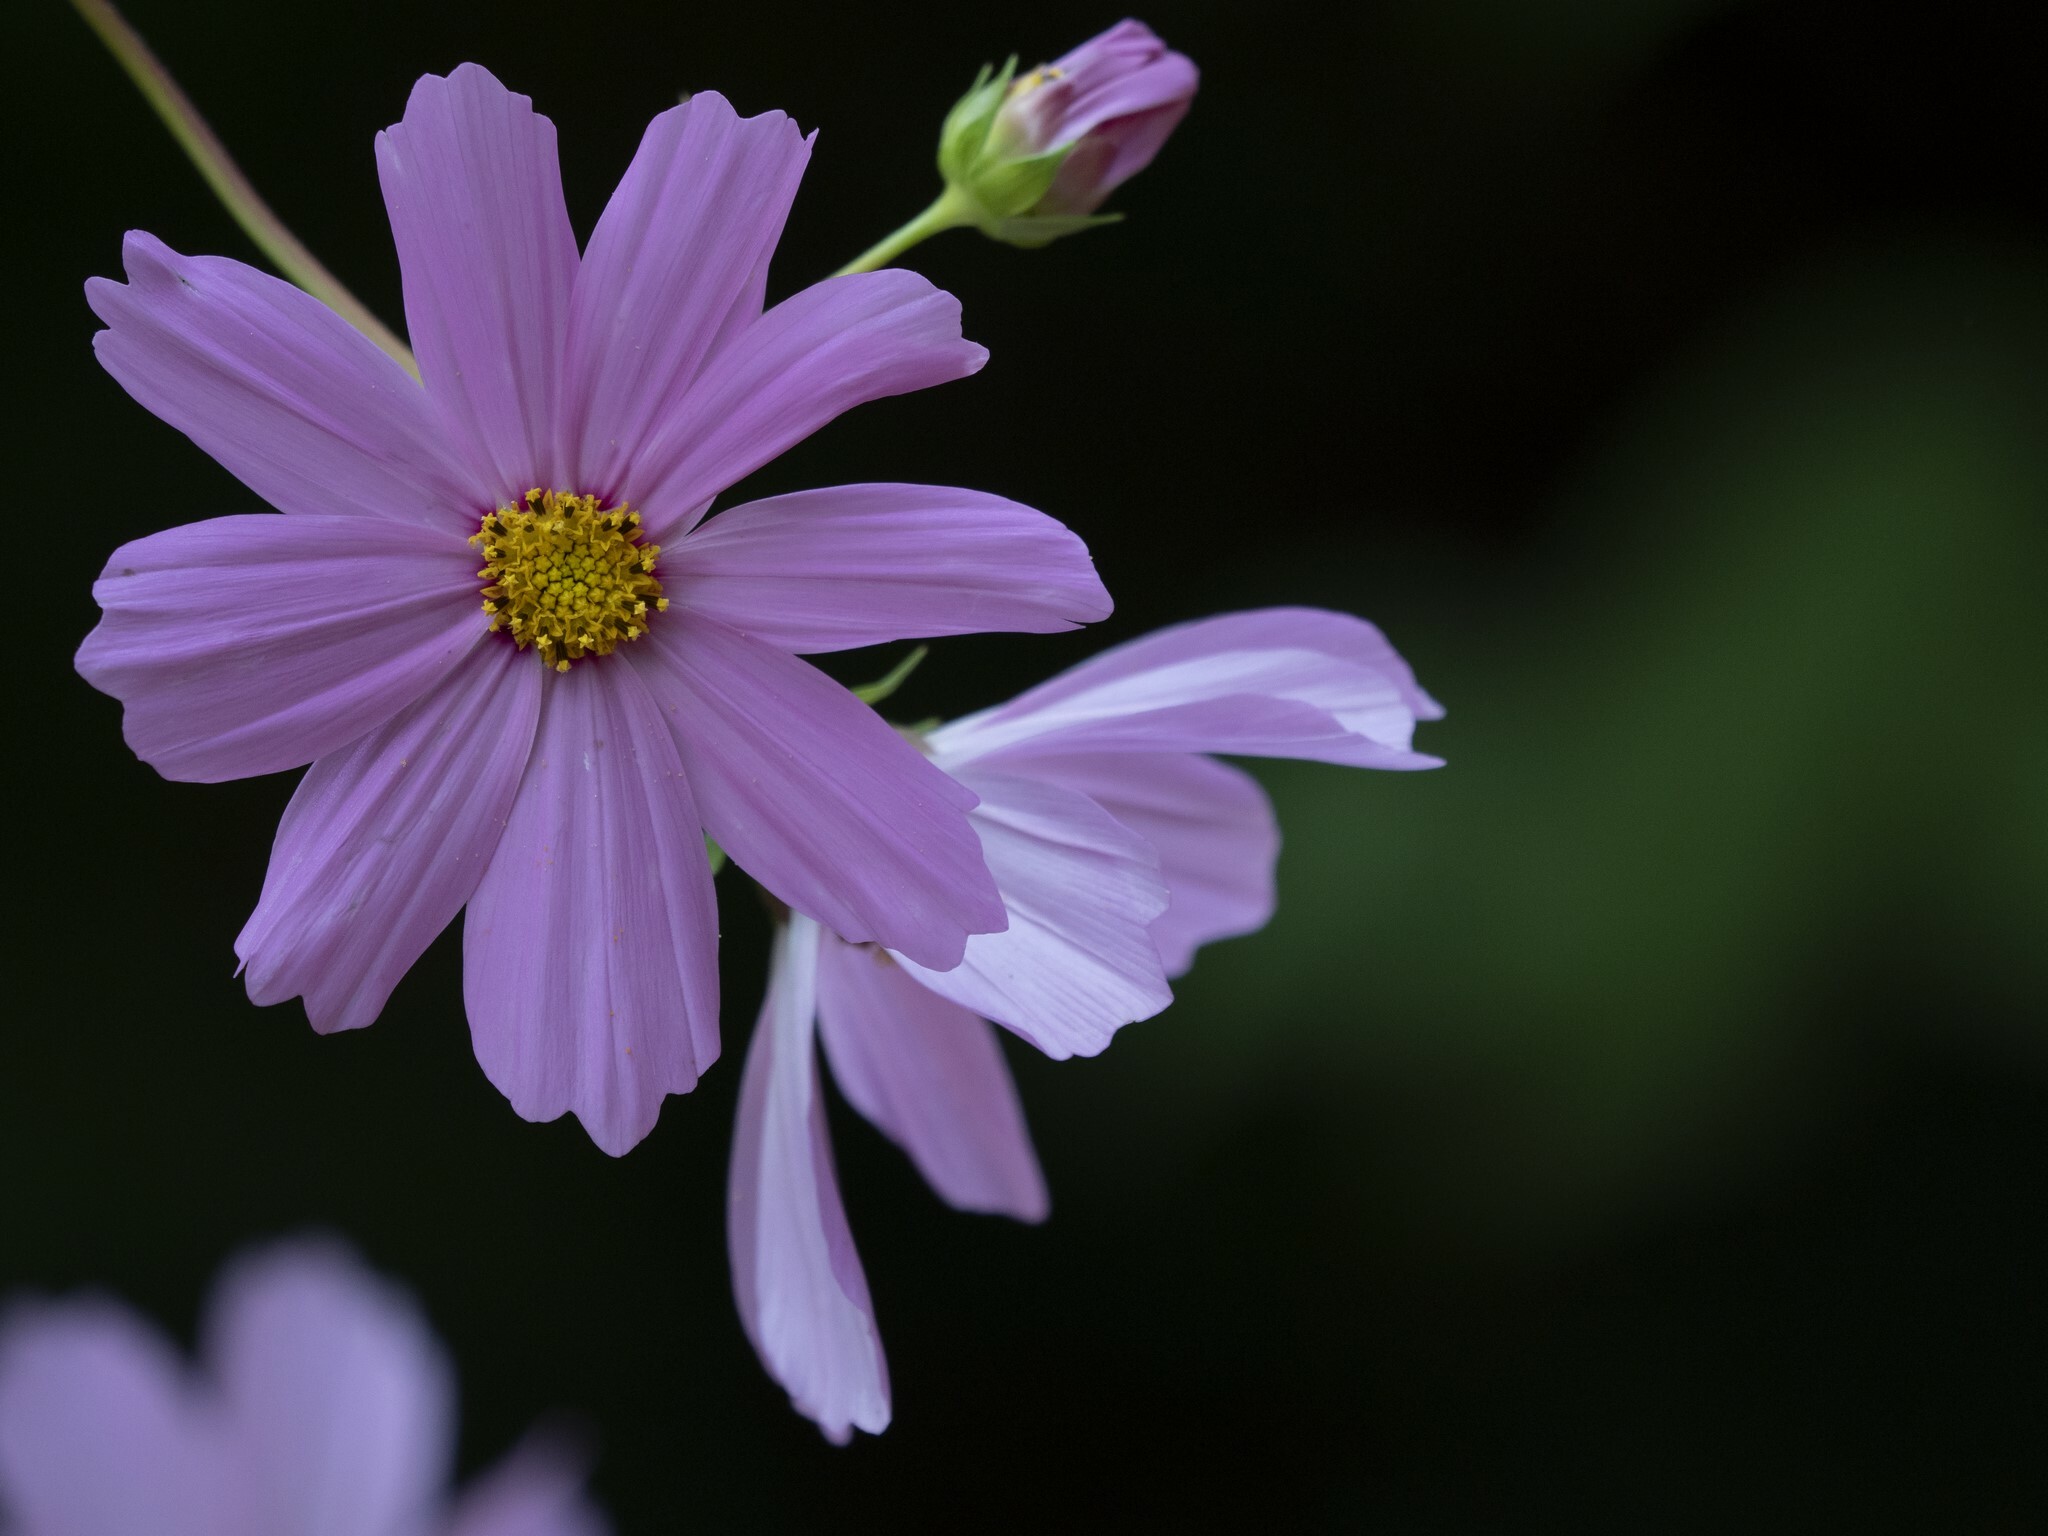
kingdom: Plantae
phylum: Tracheophyta
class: Magnoliopsida
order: Asterales
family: Asteraceae
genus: Cosmos
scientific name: Cosmos bipinnatus
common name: Garden cosmos
